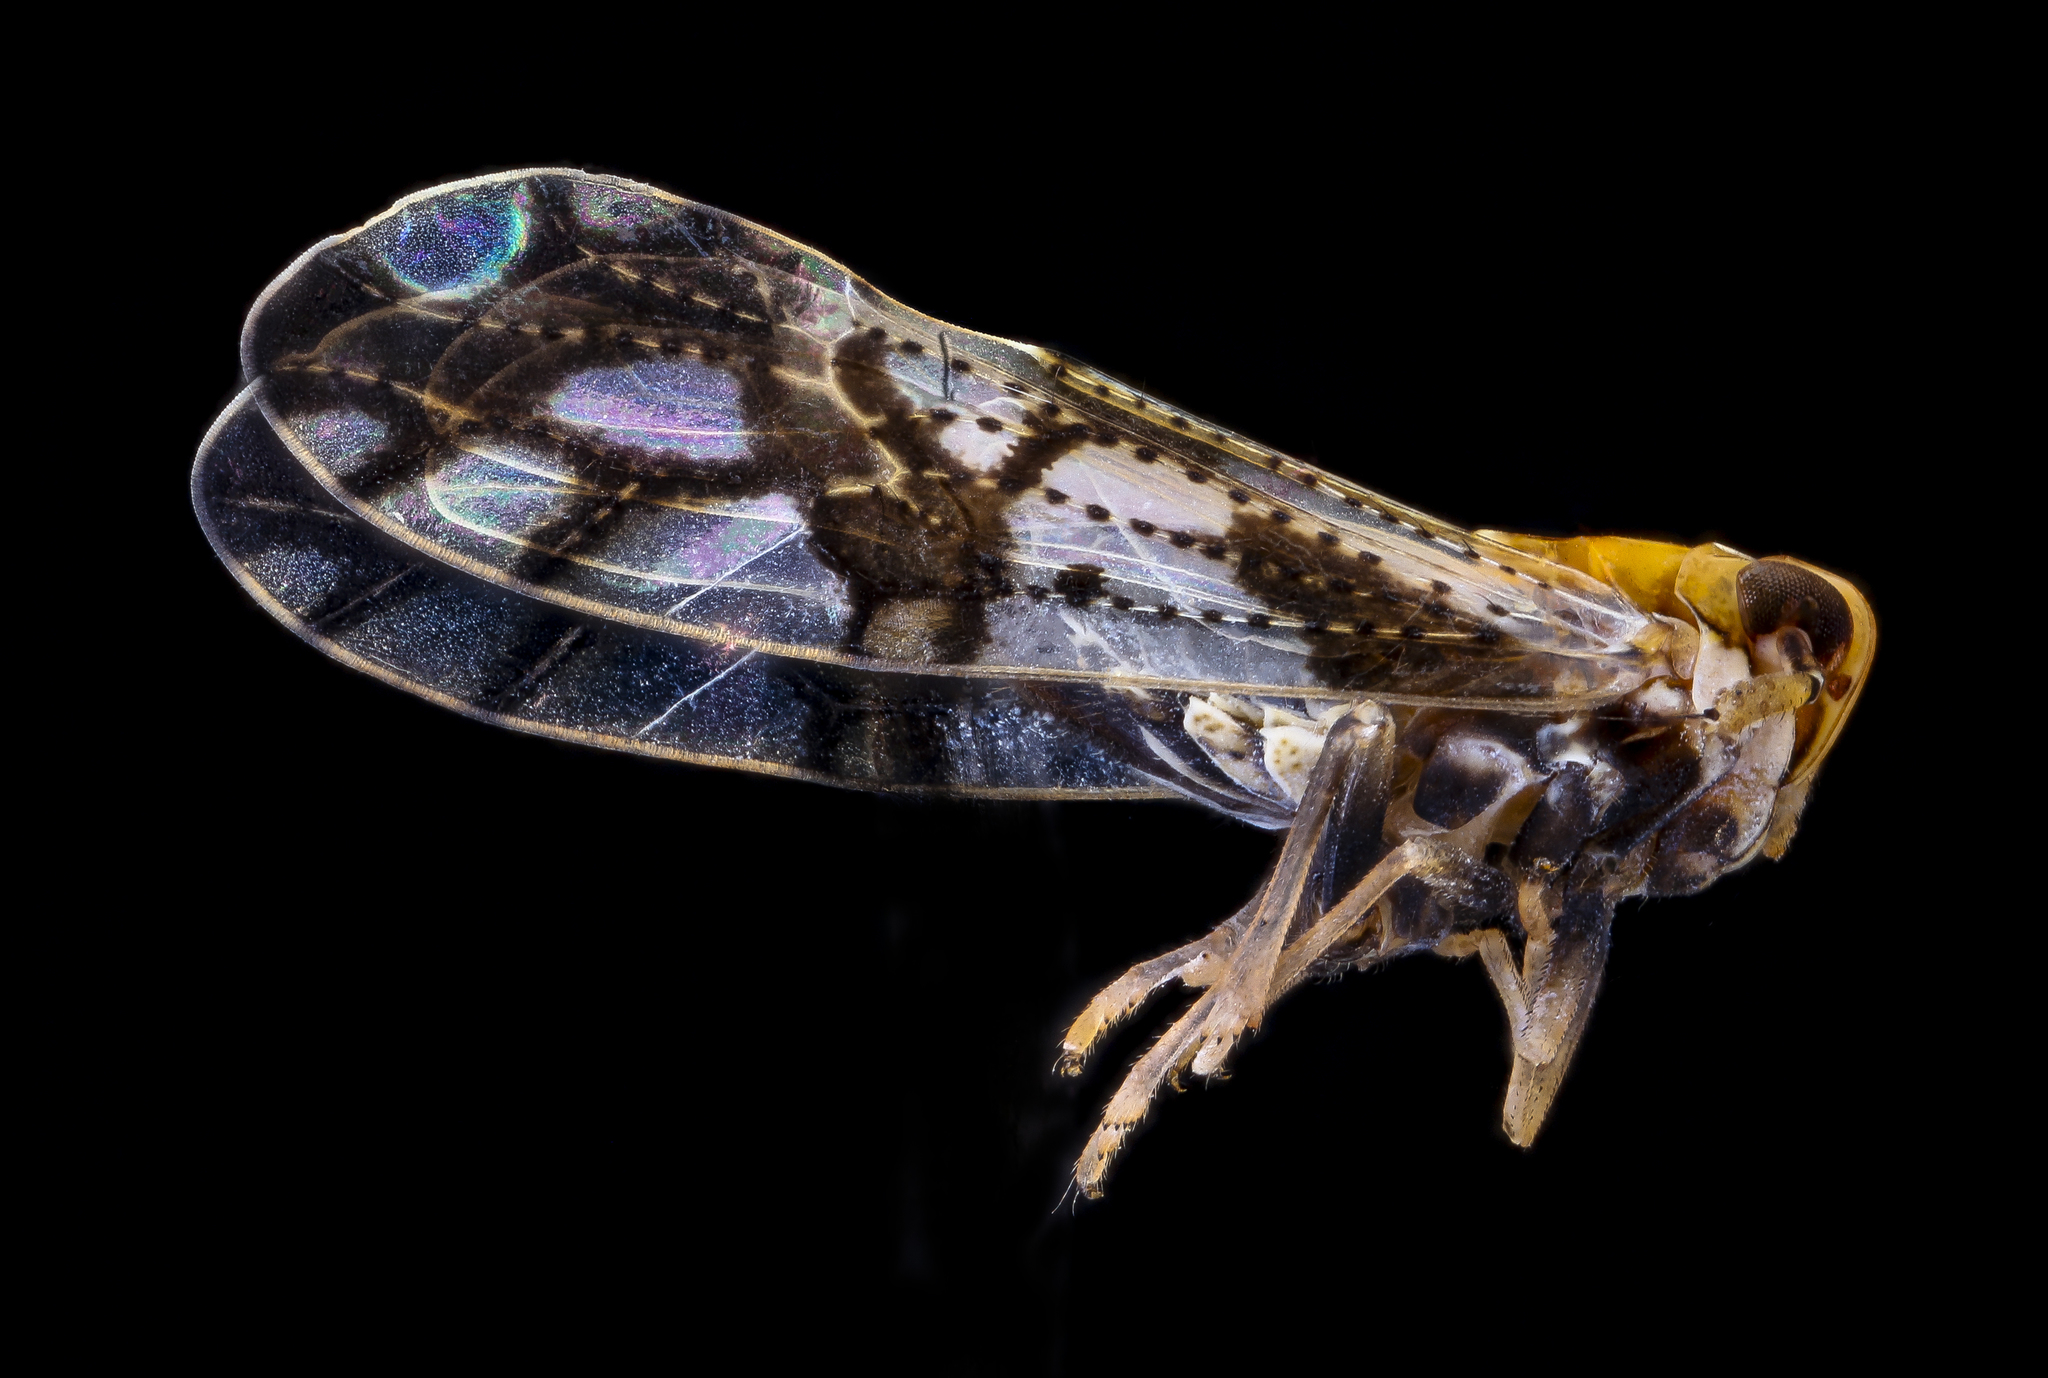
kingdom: Animalia
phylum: Arthropoda
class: Insecta
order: Hemiptera
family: Delphacidae
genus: Liburniella
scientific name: Liburniella ornata
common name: Ornate planthopper
